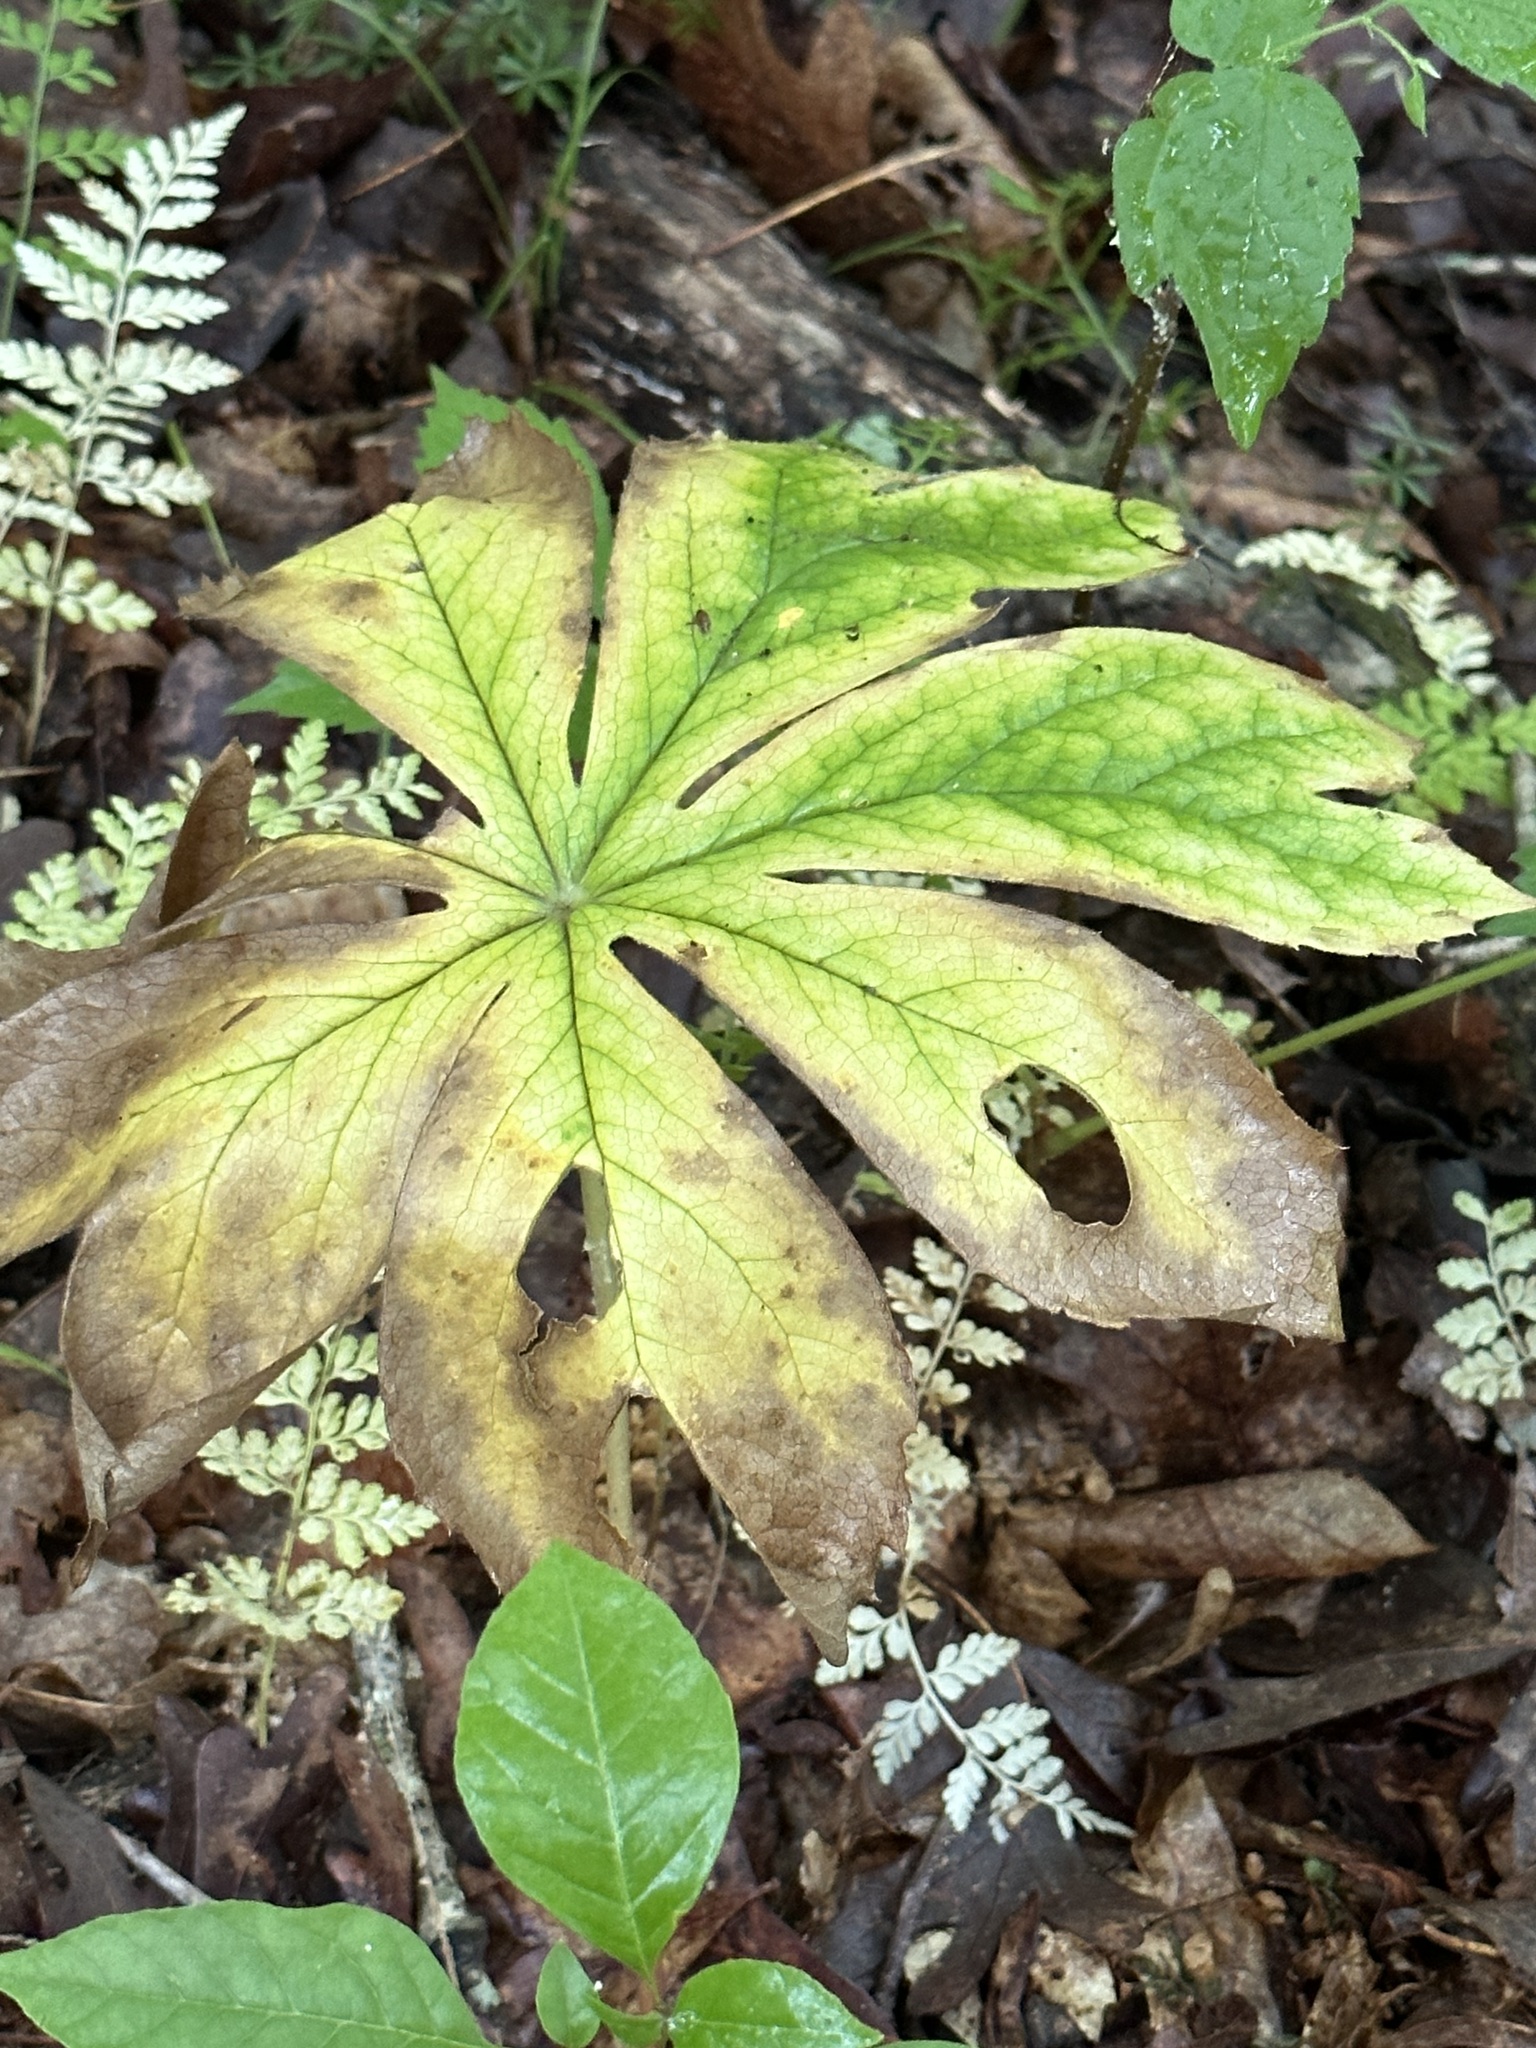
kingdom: Plantae
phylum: Tracheophyta
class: Magnoliopsida
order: Ranunculales
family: Berberidaceae
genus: Podophyllum
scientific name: Podophyllum peltatum
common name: Wild mandrake
